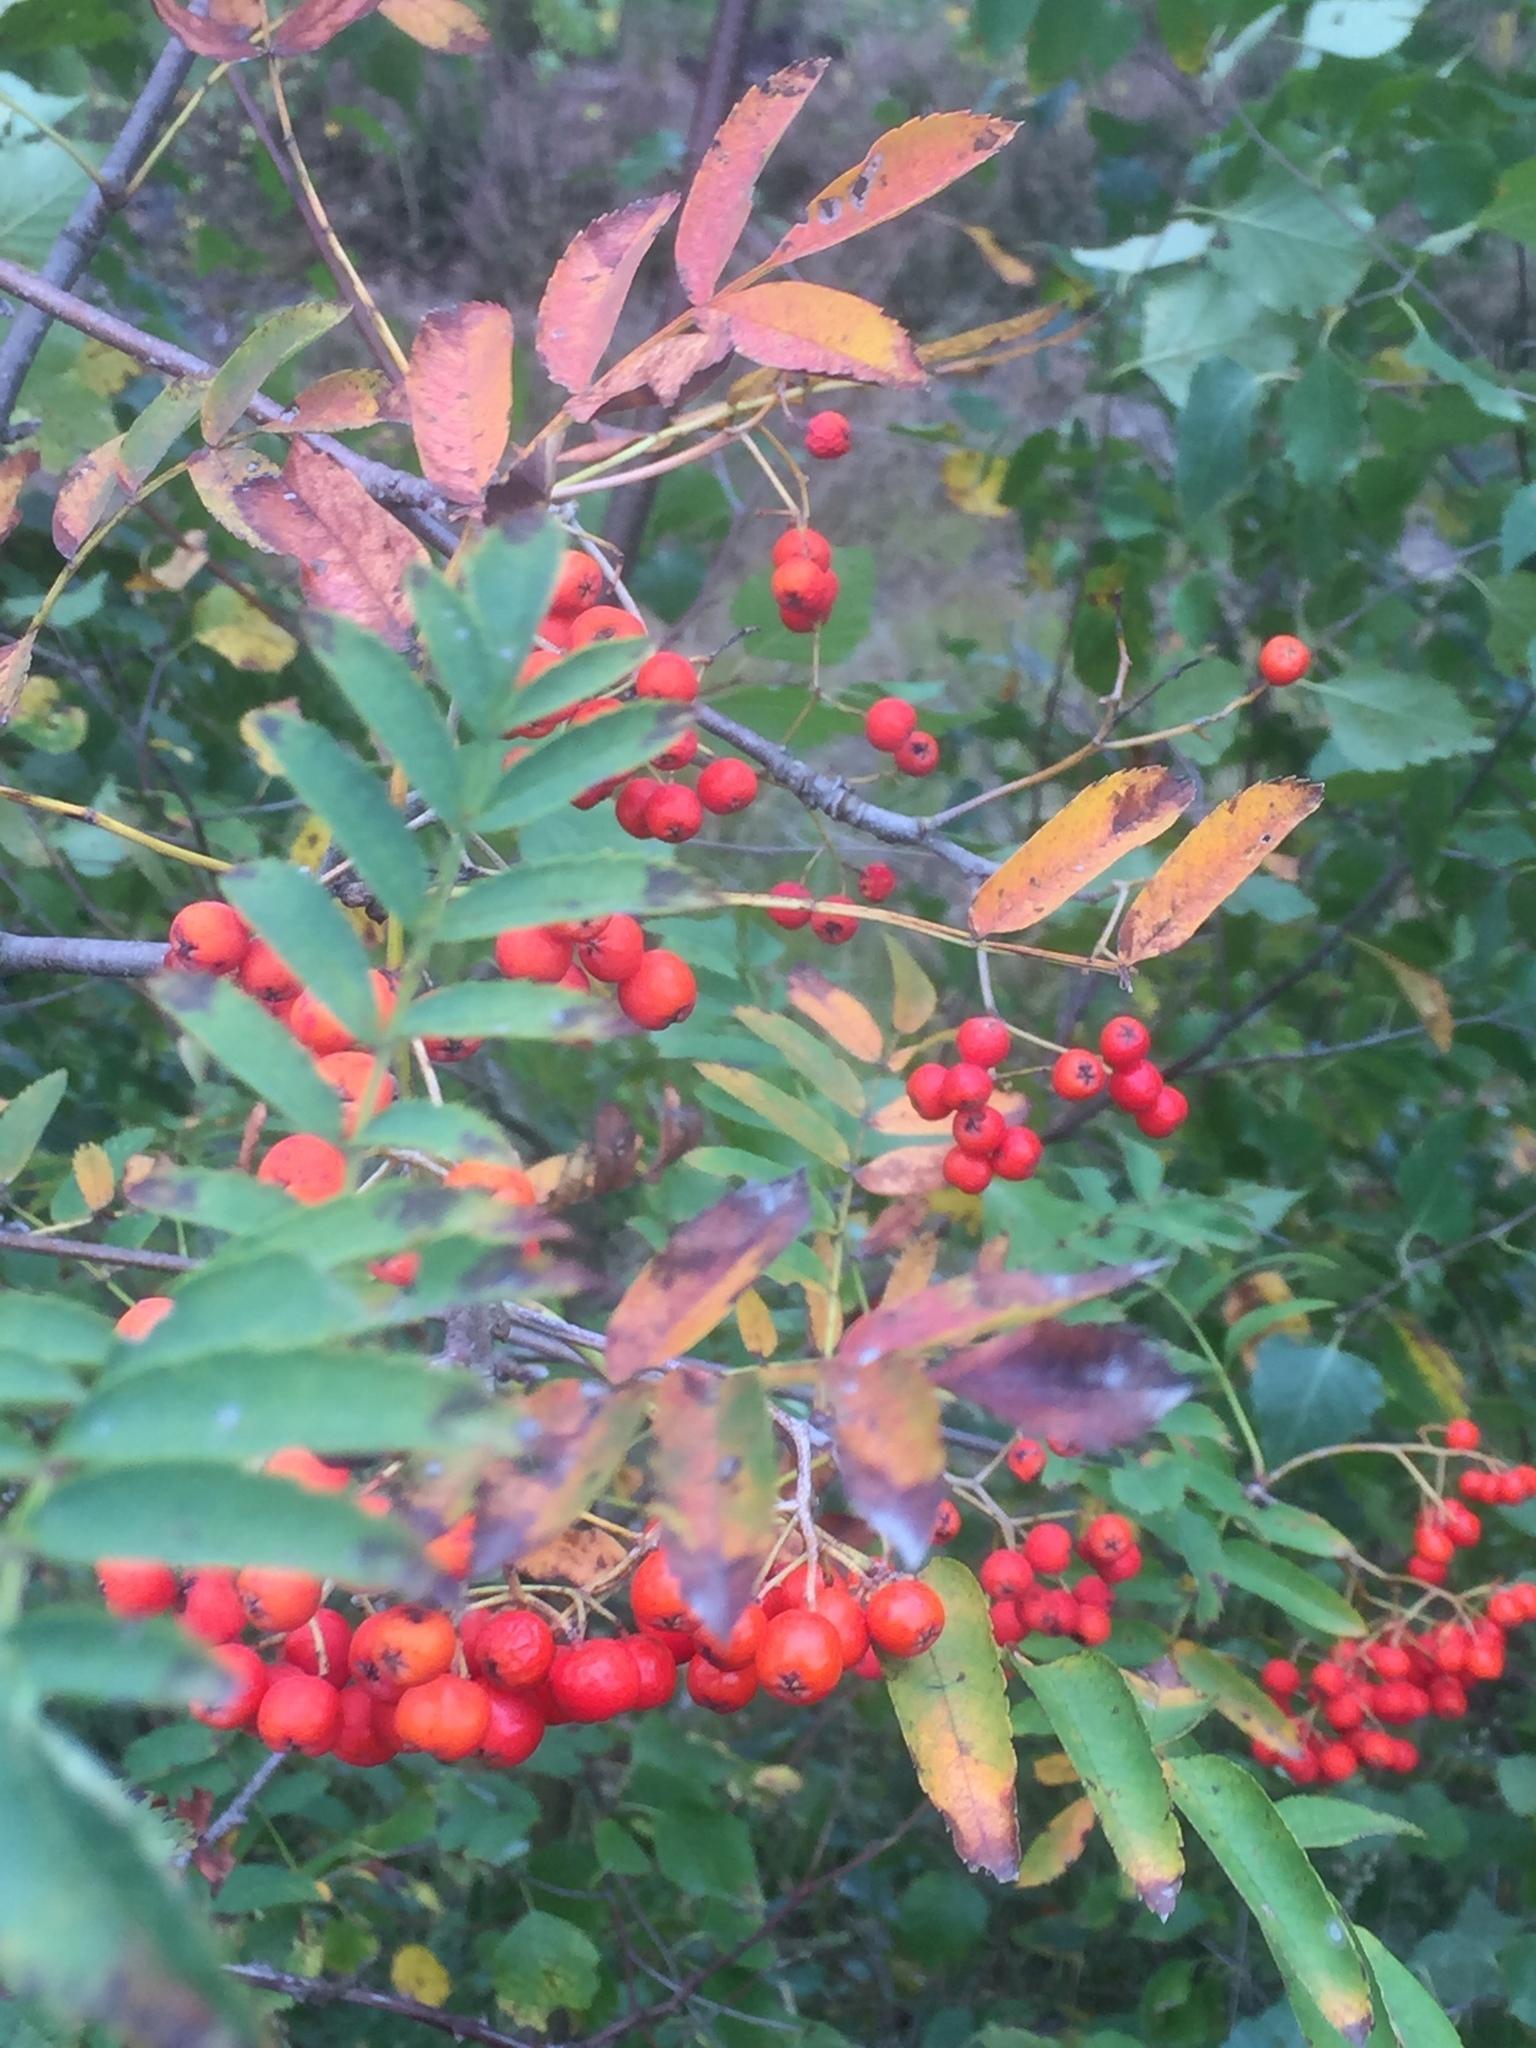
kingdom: Plantae
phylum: Tracheophyta
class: Magnoliopsida
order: Rosales
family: Rosaceae
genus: Sorbus
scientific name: Sorbus aucuparia
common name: Rowan
